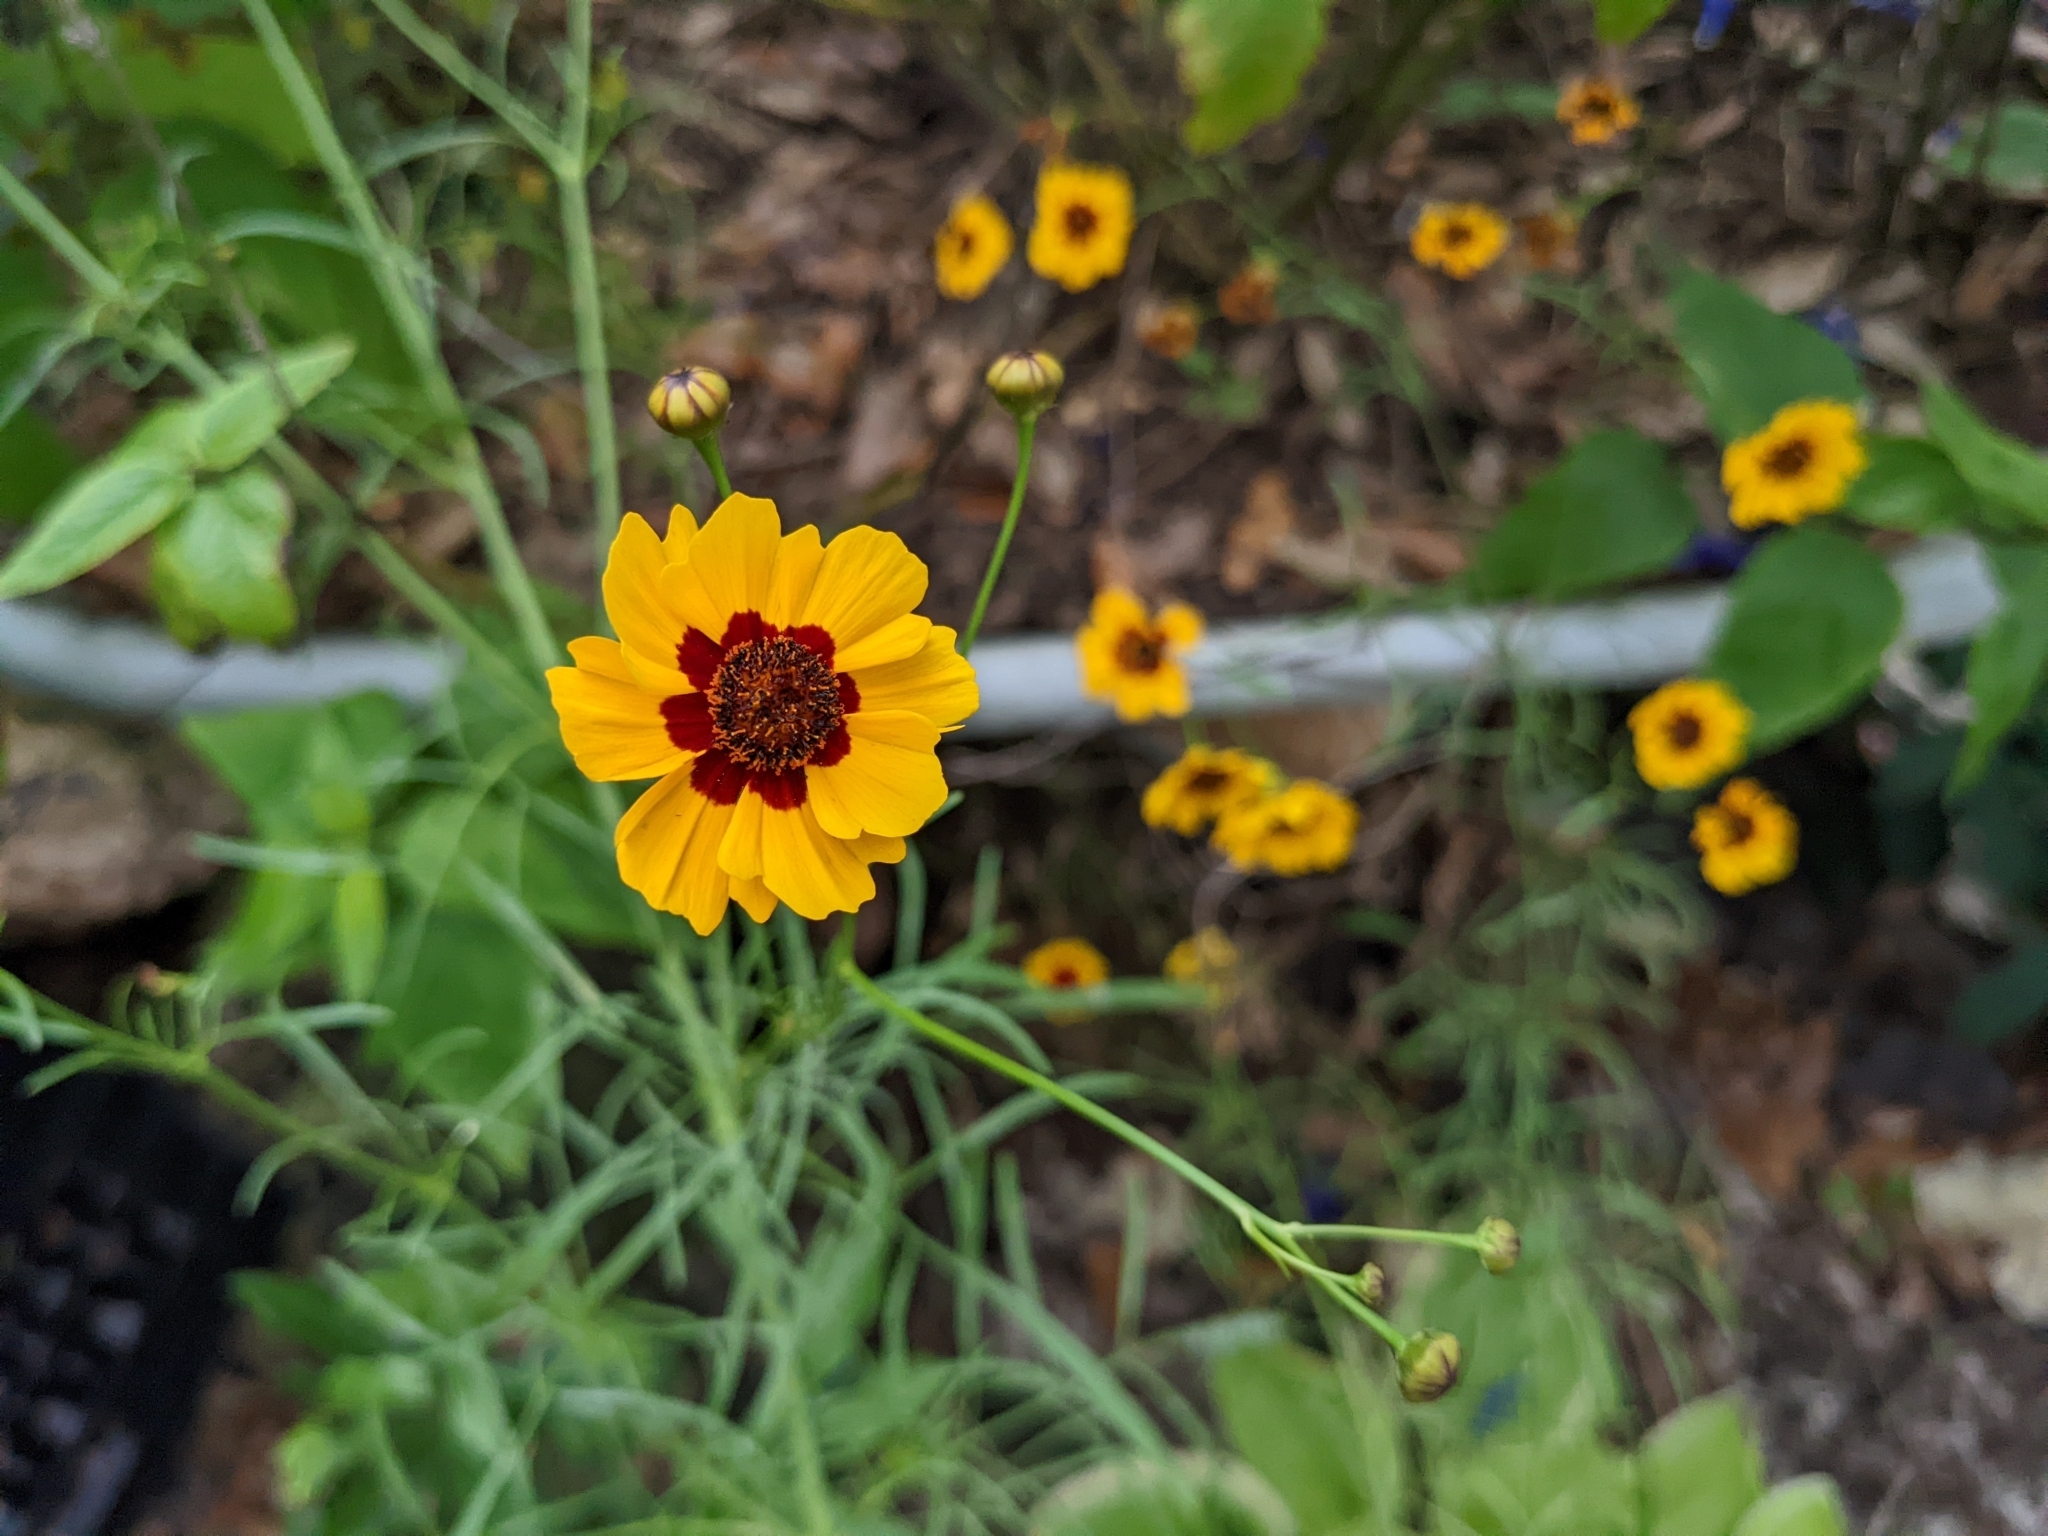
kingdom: Plantae
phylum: Tracheophyta
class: Magnoliopsida
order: Asterales
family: Asteraceae
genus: Coreopsis
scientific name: Coreopsis tinctoria
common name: Garden tickseed
